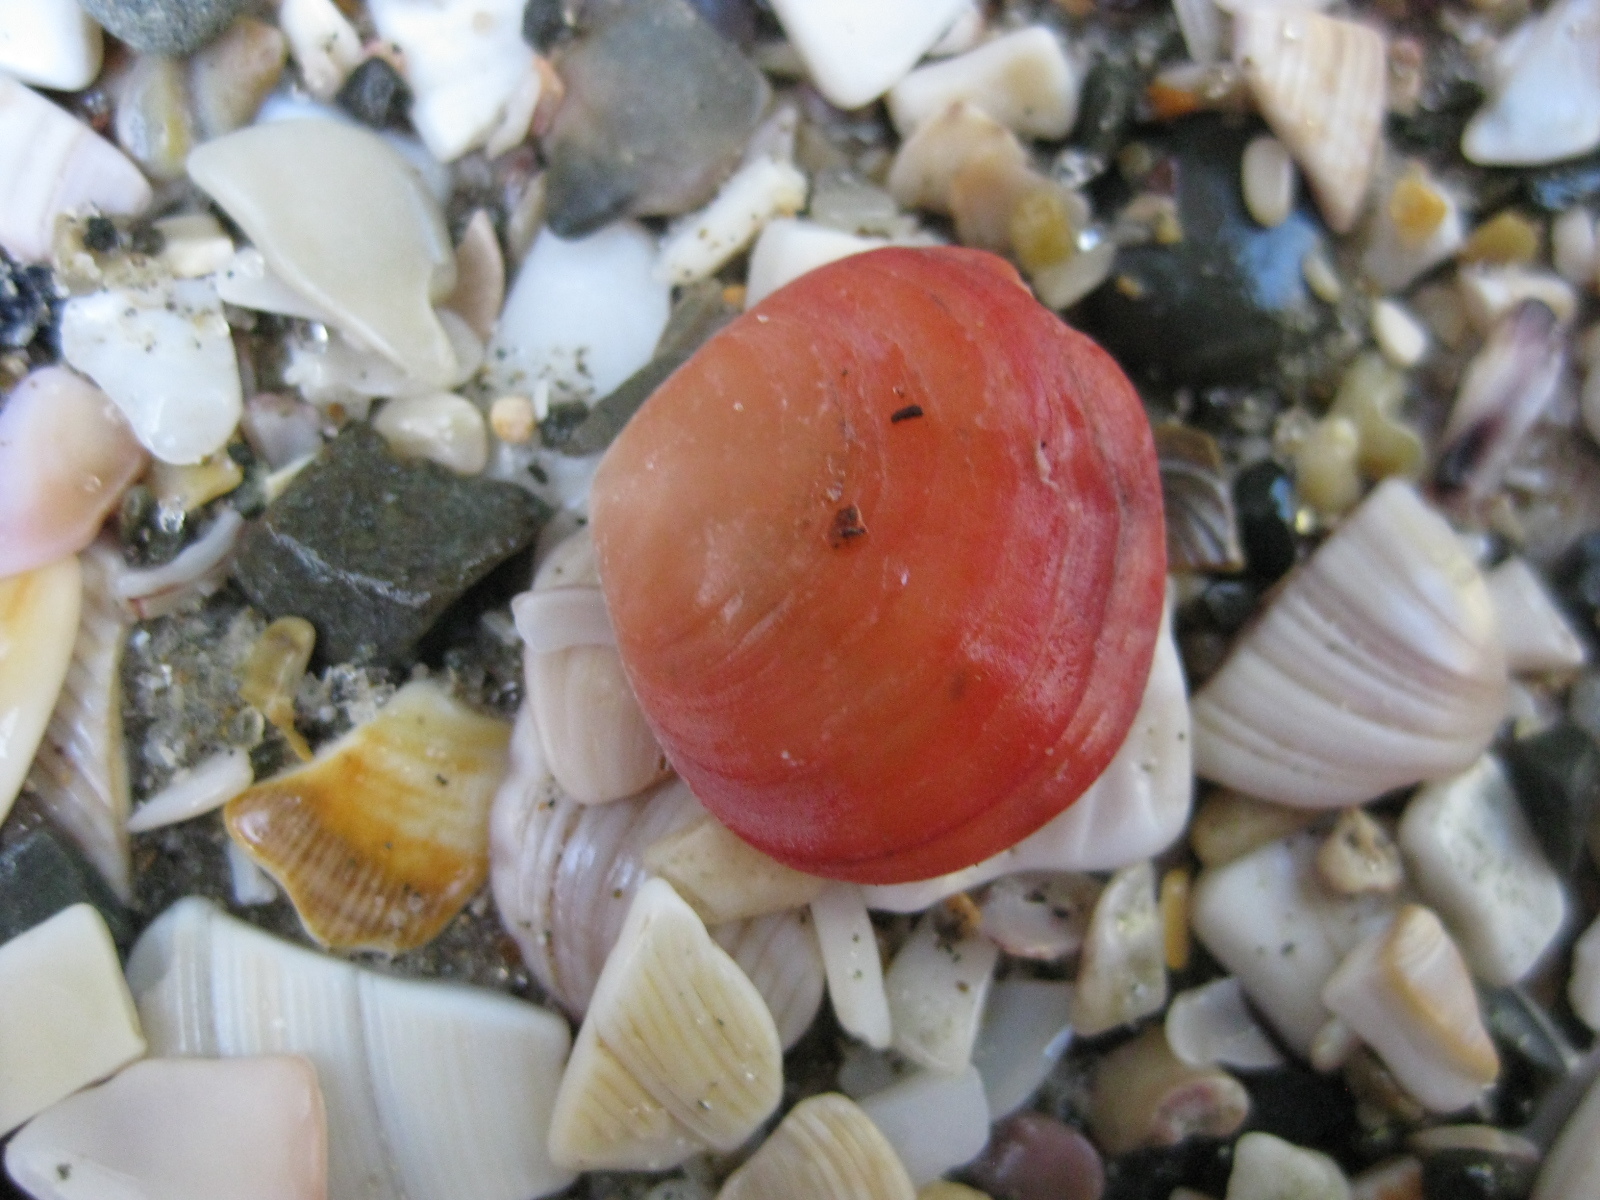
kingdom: Animalia
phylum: Brachiopoda
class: Rhynchonellata
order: Terebratulida
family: Terebratellidae
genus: Calloria
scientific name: Calloria inconspicua
